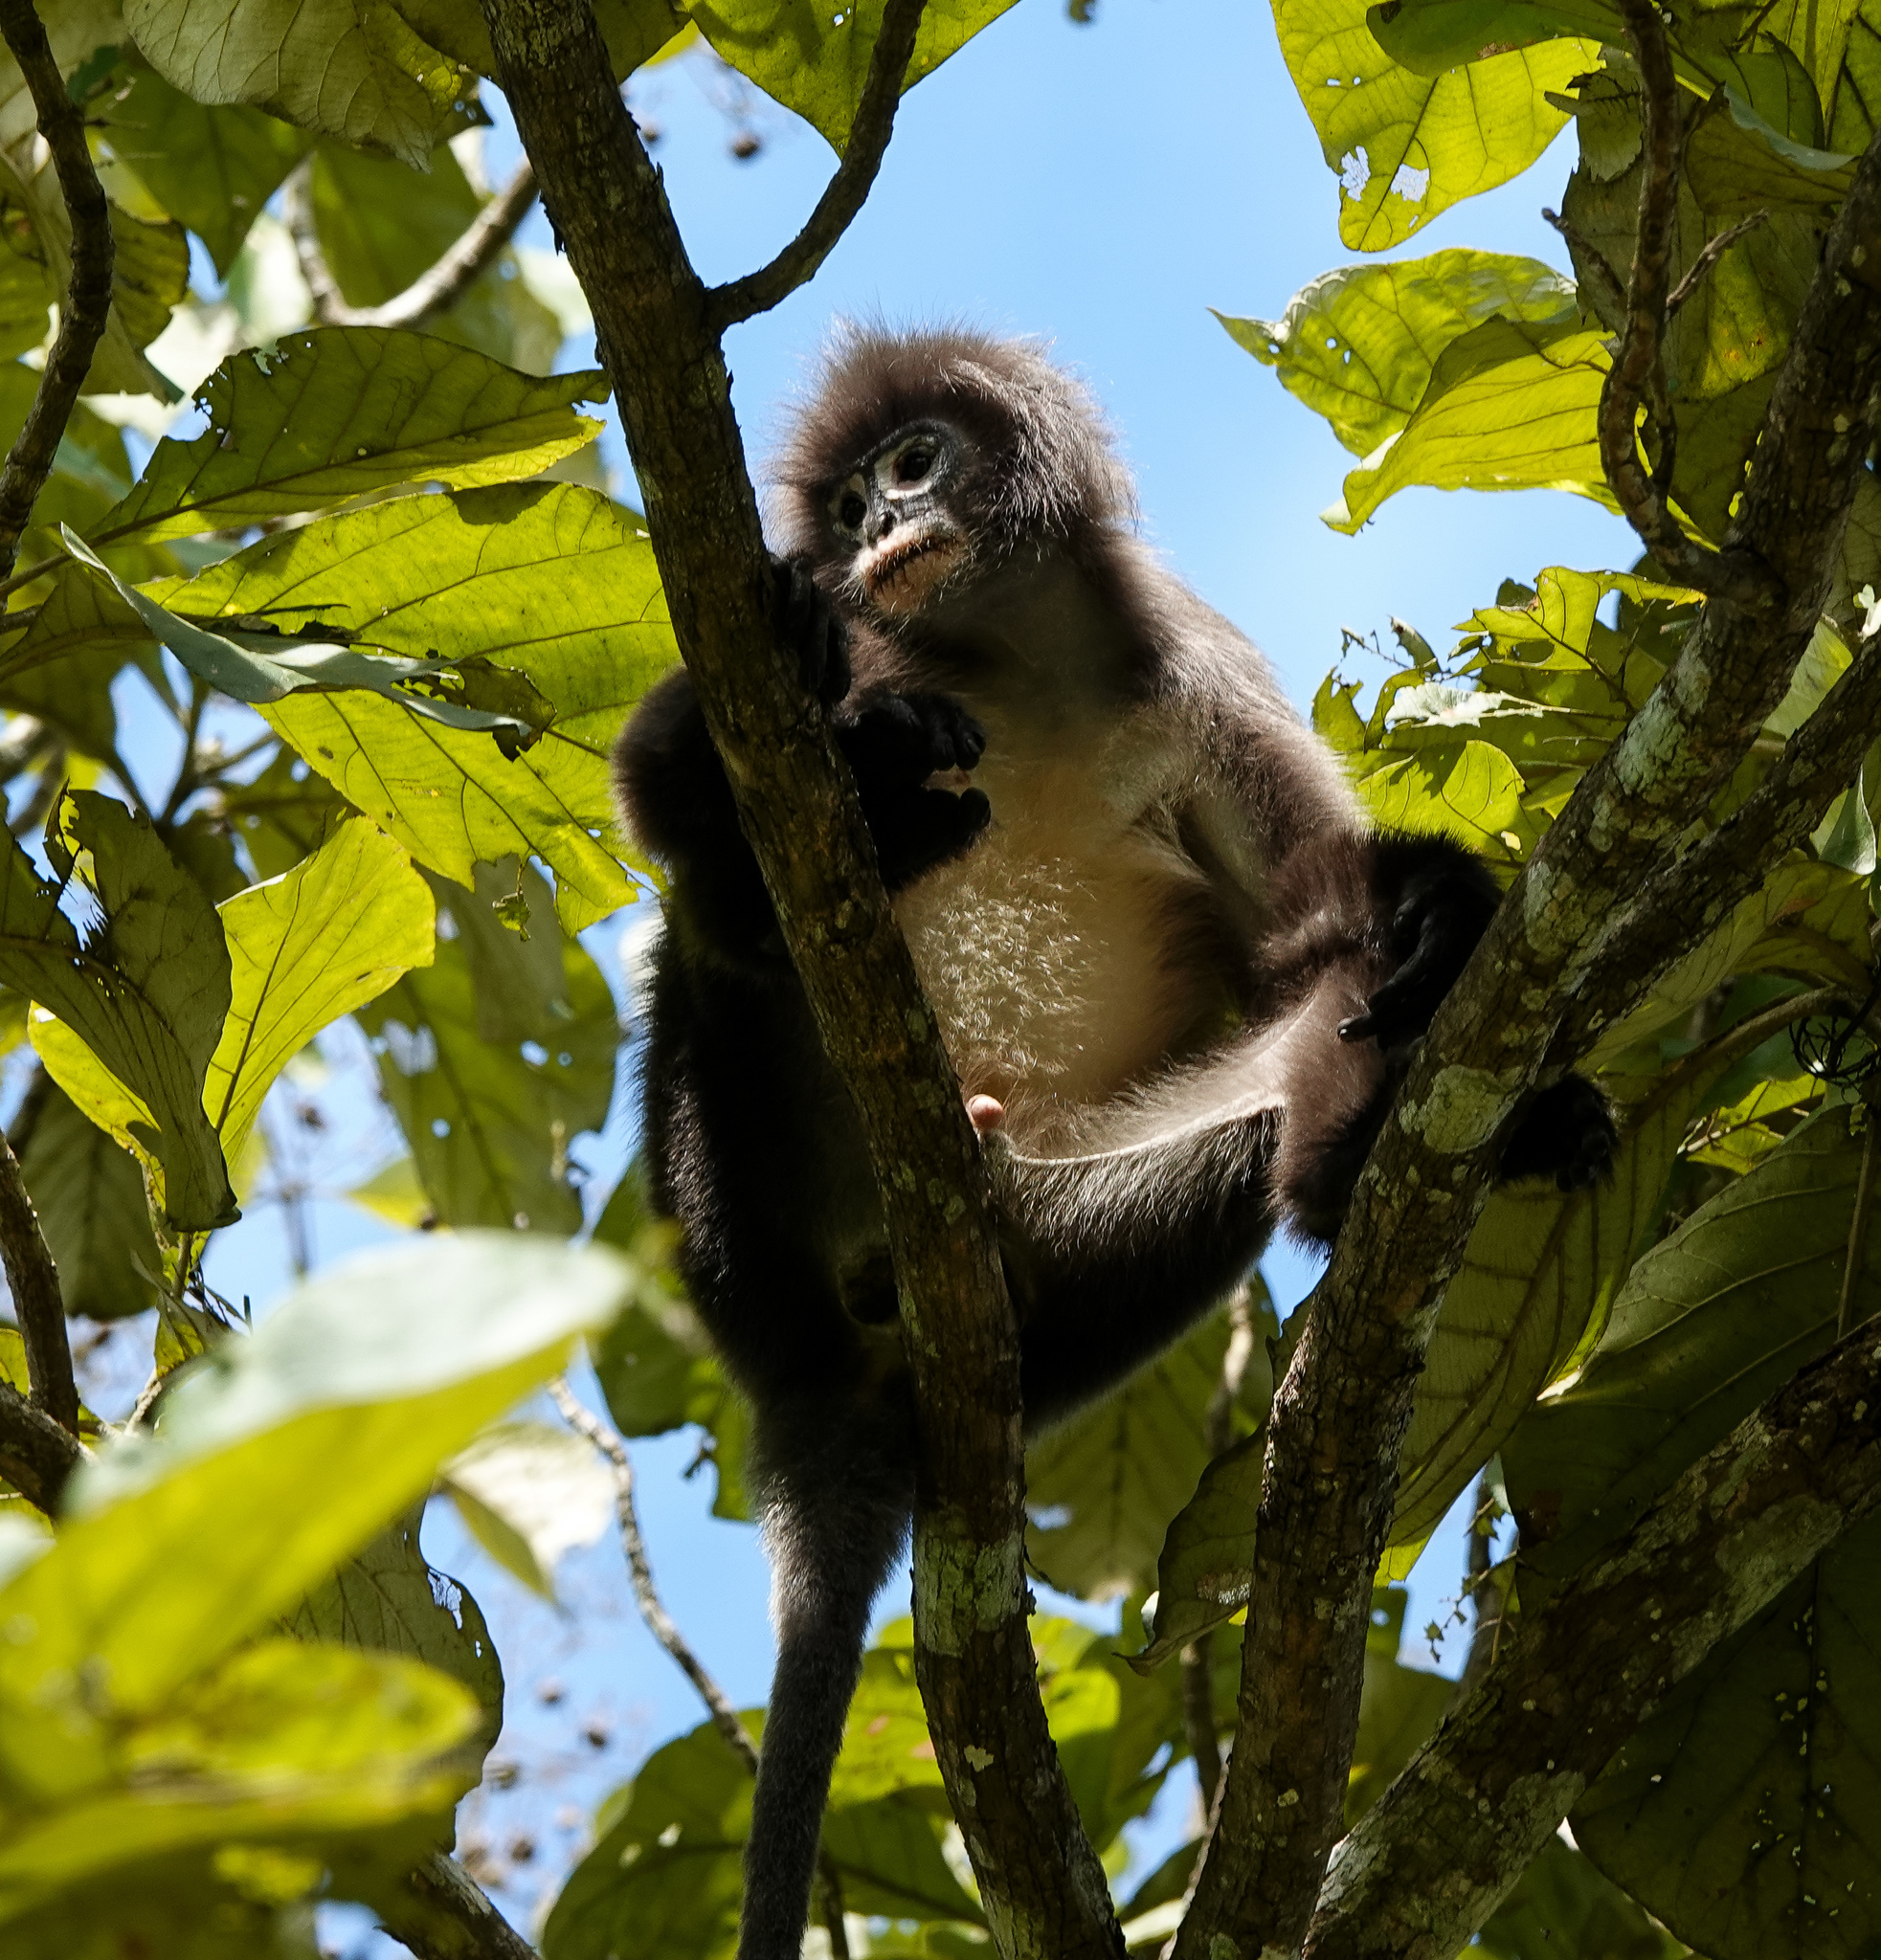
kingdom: Animalia
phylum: Chordata
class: Mammalia
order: Primates
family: Cercopithecidae
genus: Trachypithecus
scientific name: Trachypithecus phayrei
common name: Phayre's leaf monkey
